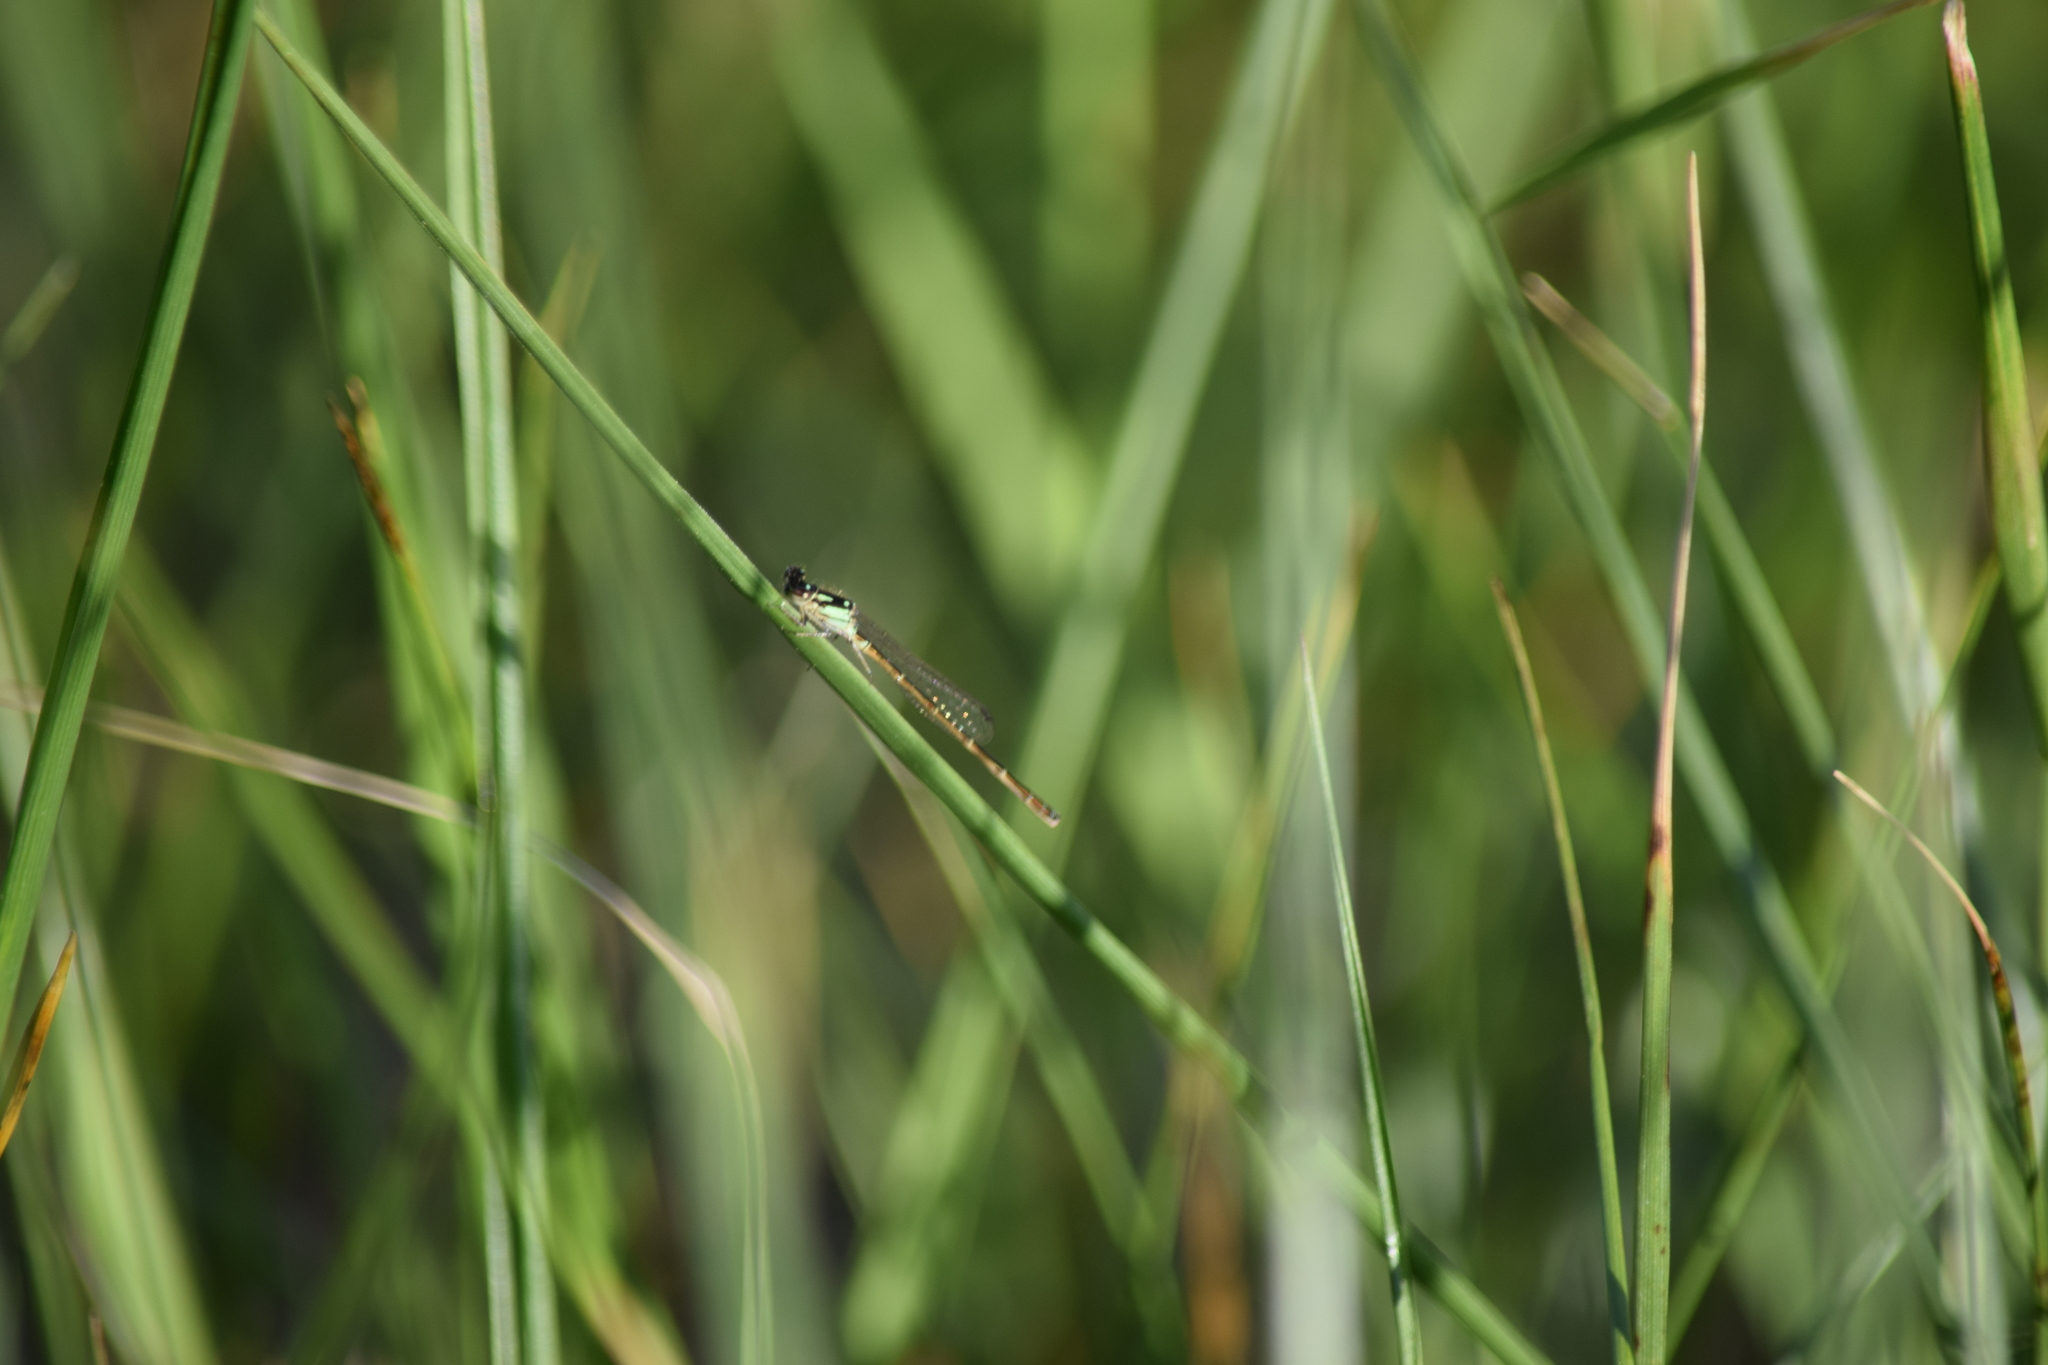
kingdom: Animalia
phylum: Arthropoda
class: Insecta
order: Odonata
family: Coenagrionidae
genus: Ischnura
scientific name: Ischnura posita
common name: Fragile forktail
